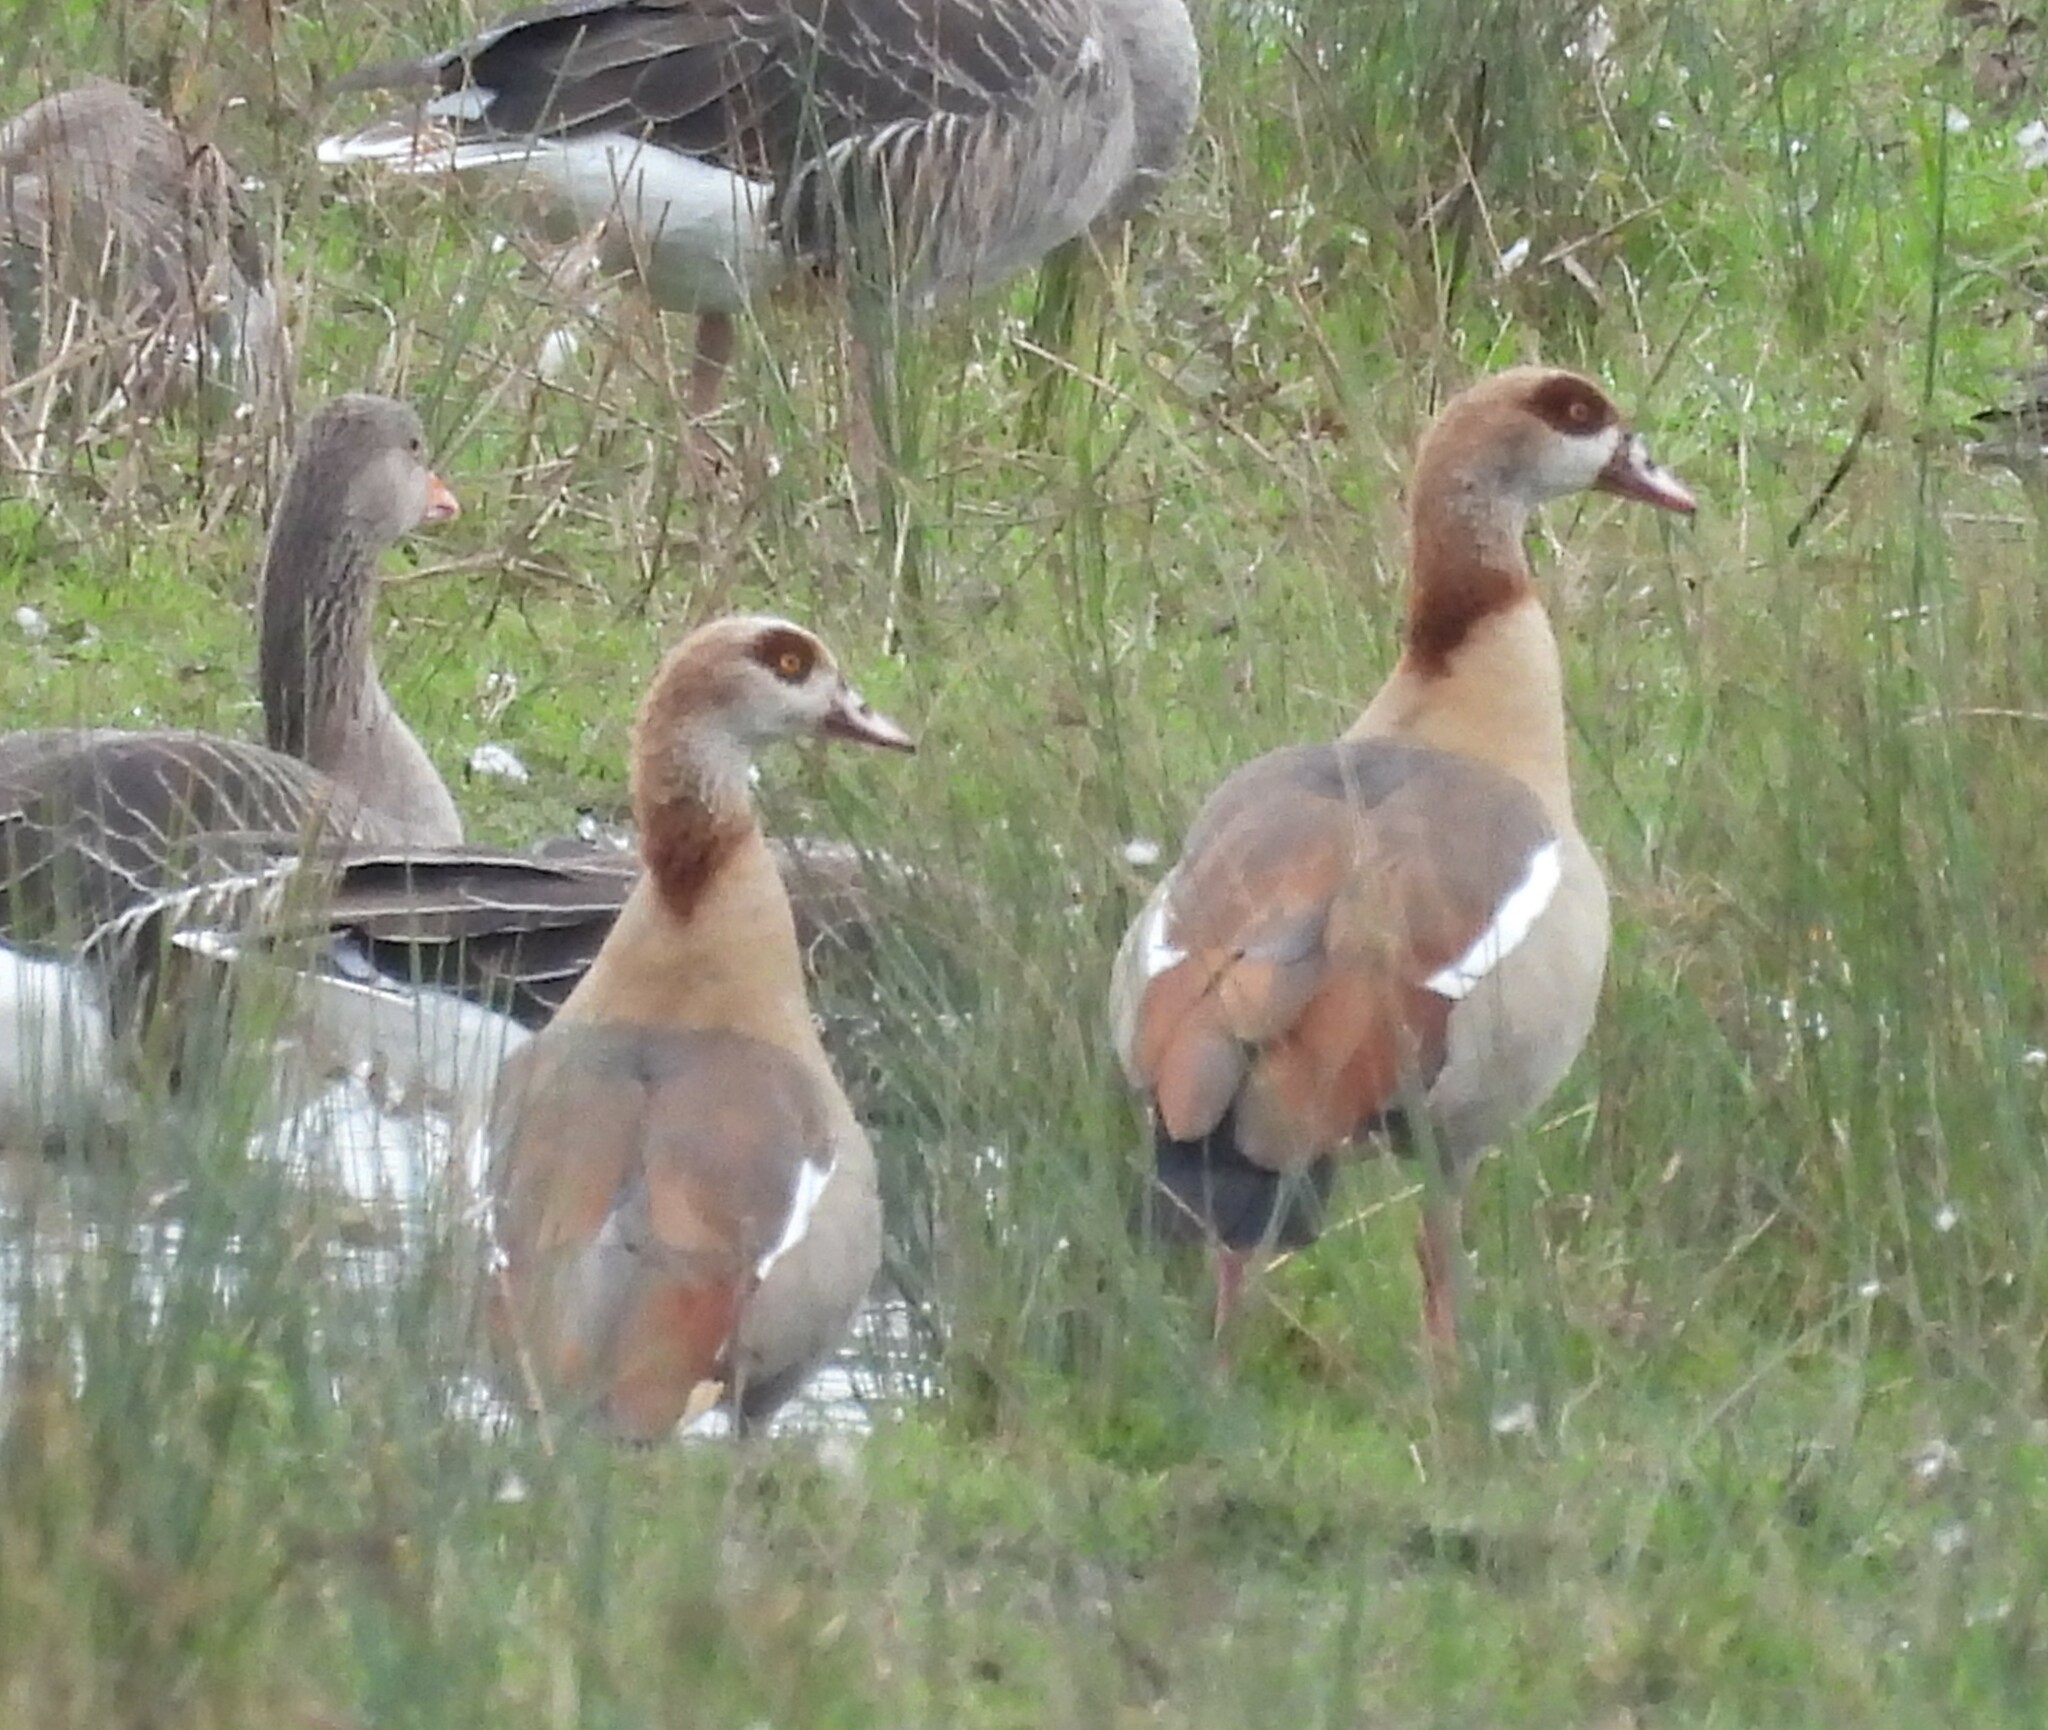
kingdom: Animalia
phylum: Chordata
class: Aves
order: Anseriformes
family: Anatidae
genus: Alopochen
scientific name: Alopochen aegyptiaca
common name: Egyptian goose
